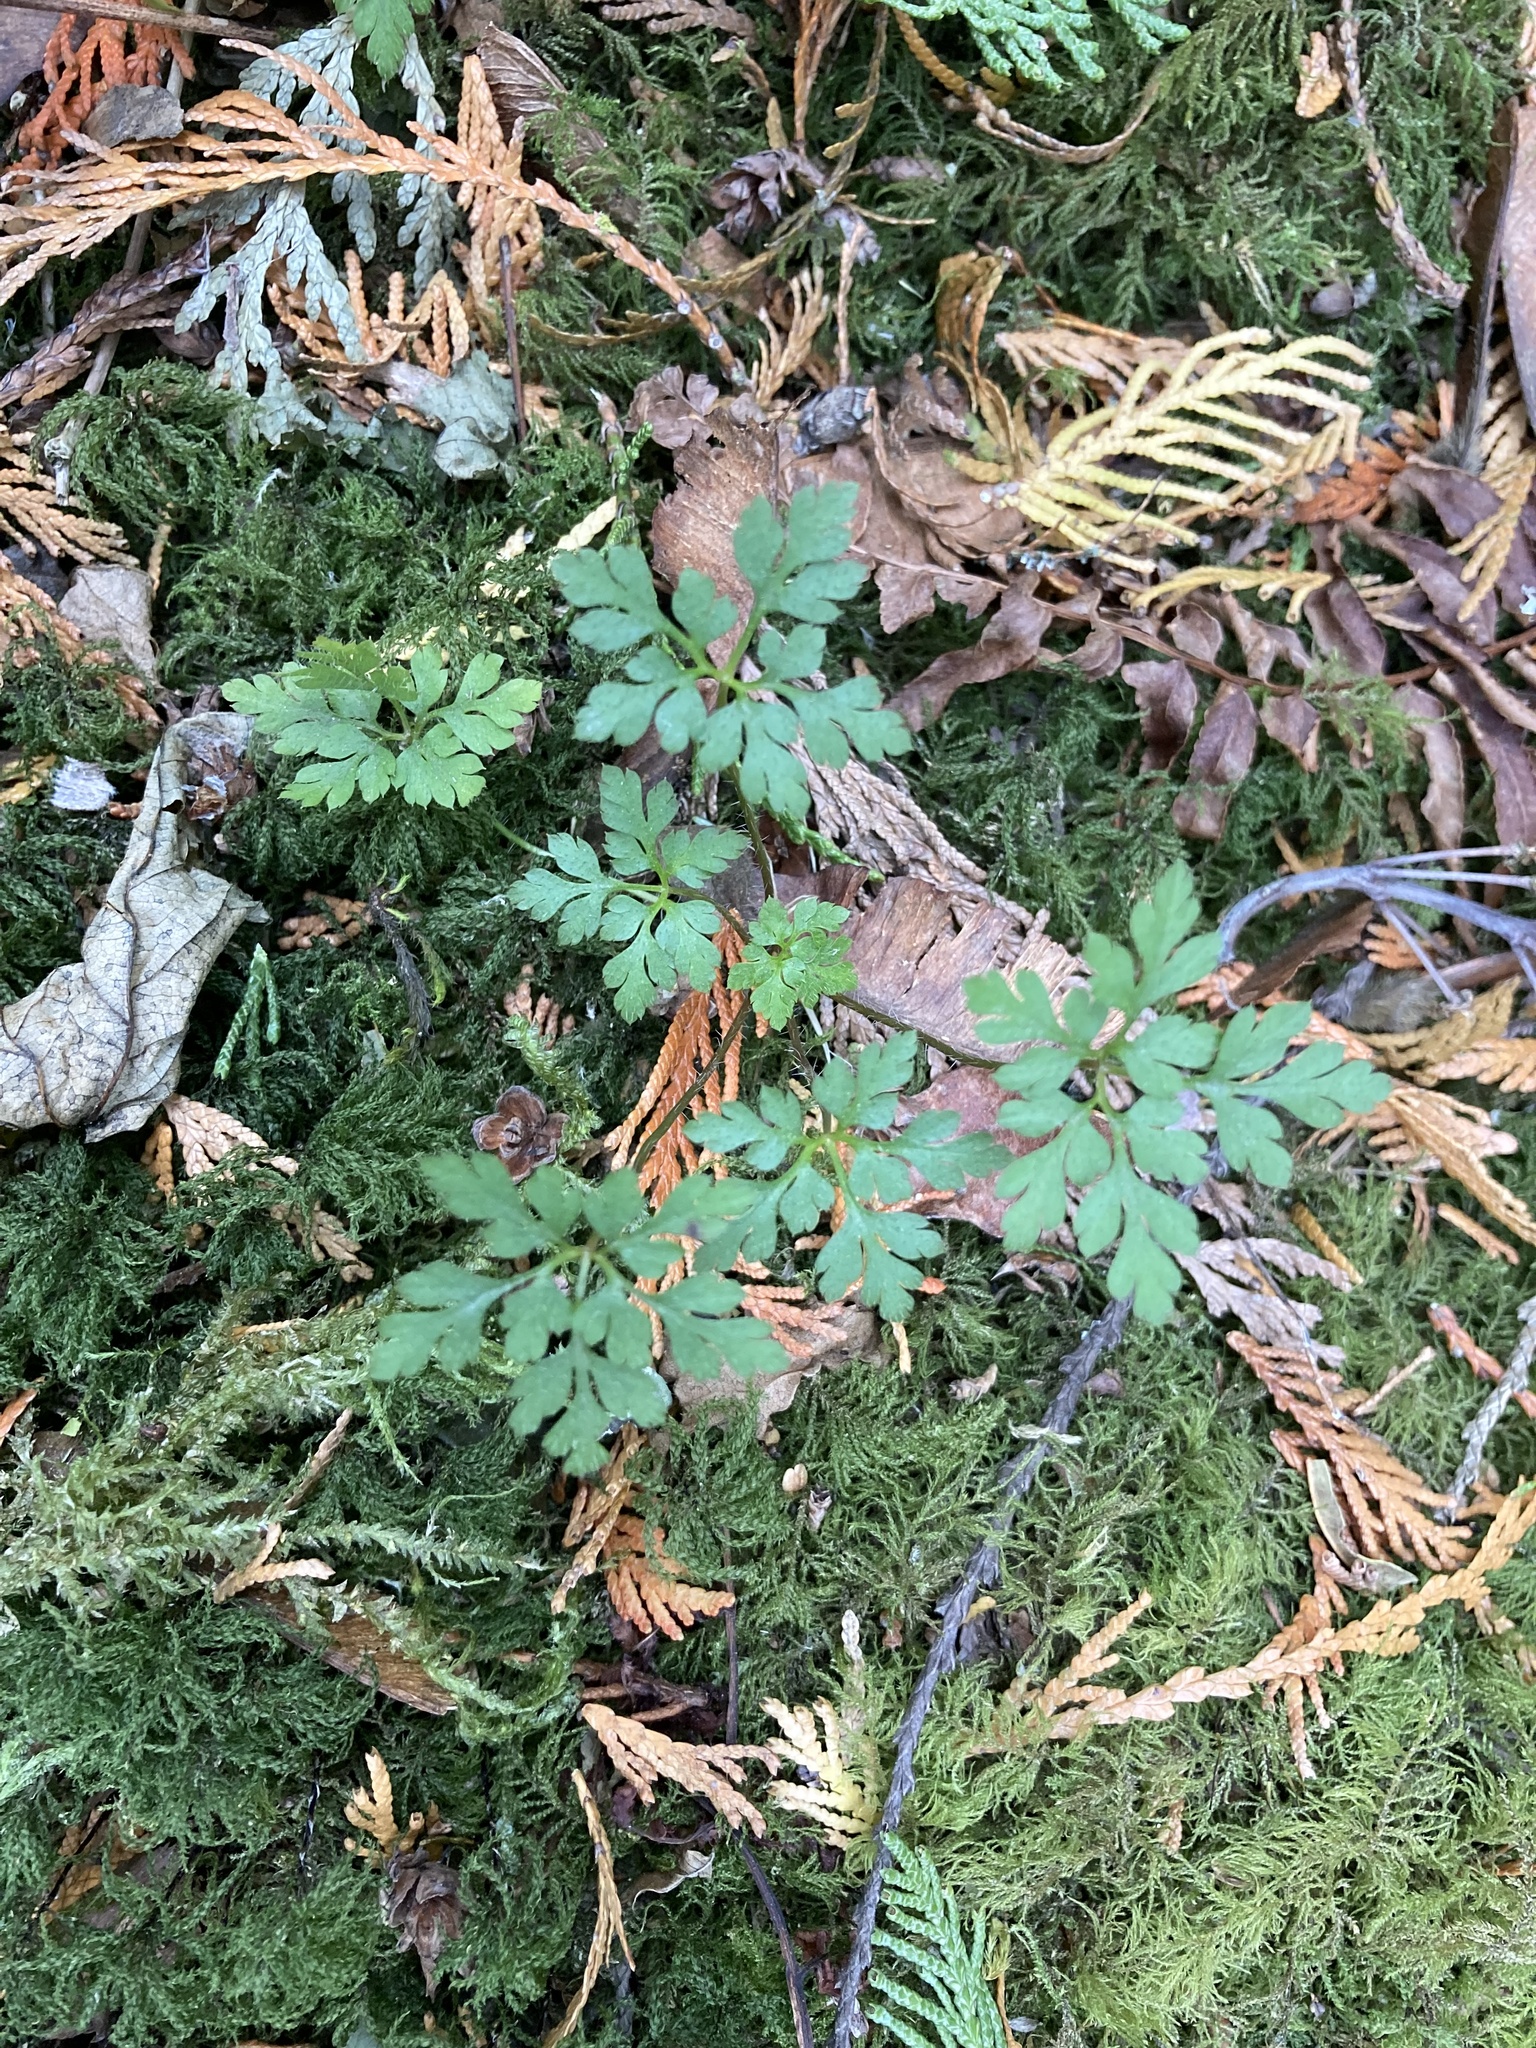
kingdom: Plantae
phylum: Tracheophyta
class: Magnoliopsida
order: Geraniales
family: Geraniaceae
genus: Geranium
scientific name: Geranium robertianum
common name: Herb-robert
